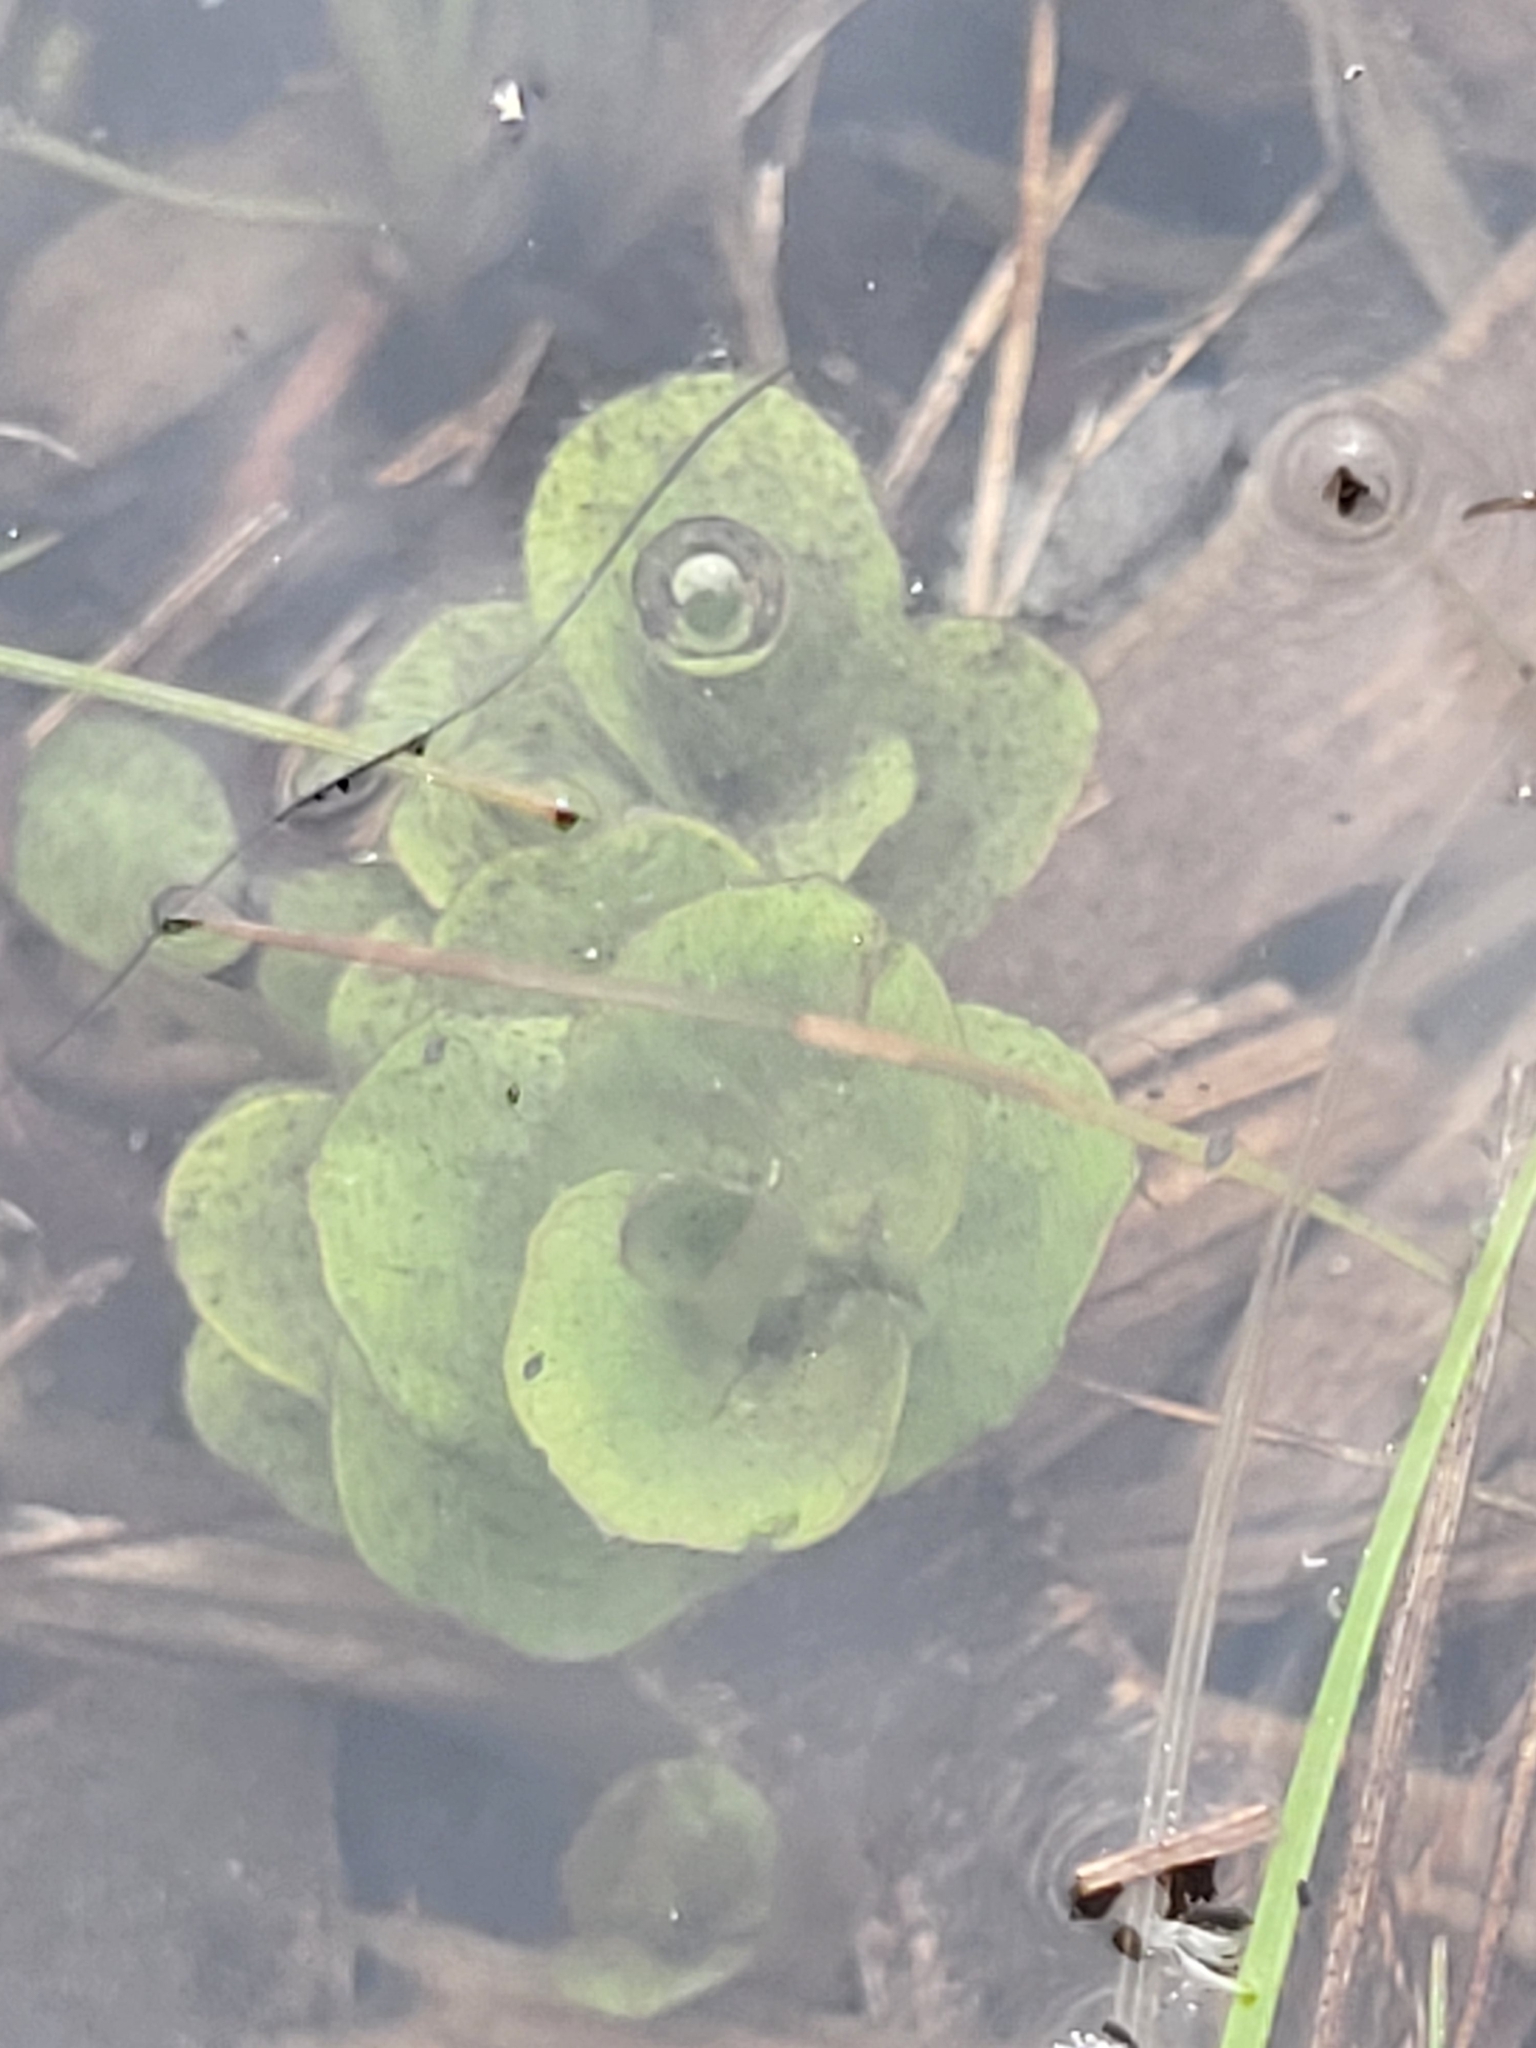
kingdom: Plantae
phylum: Tracheophyta
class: Magnoliopsida
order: Ericales
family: Primulaceae
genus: Lysimachia
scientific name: Lysimachia nummularia
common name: Moneywort
